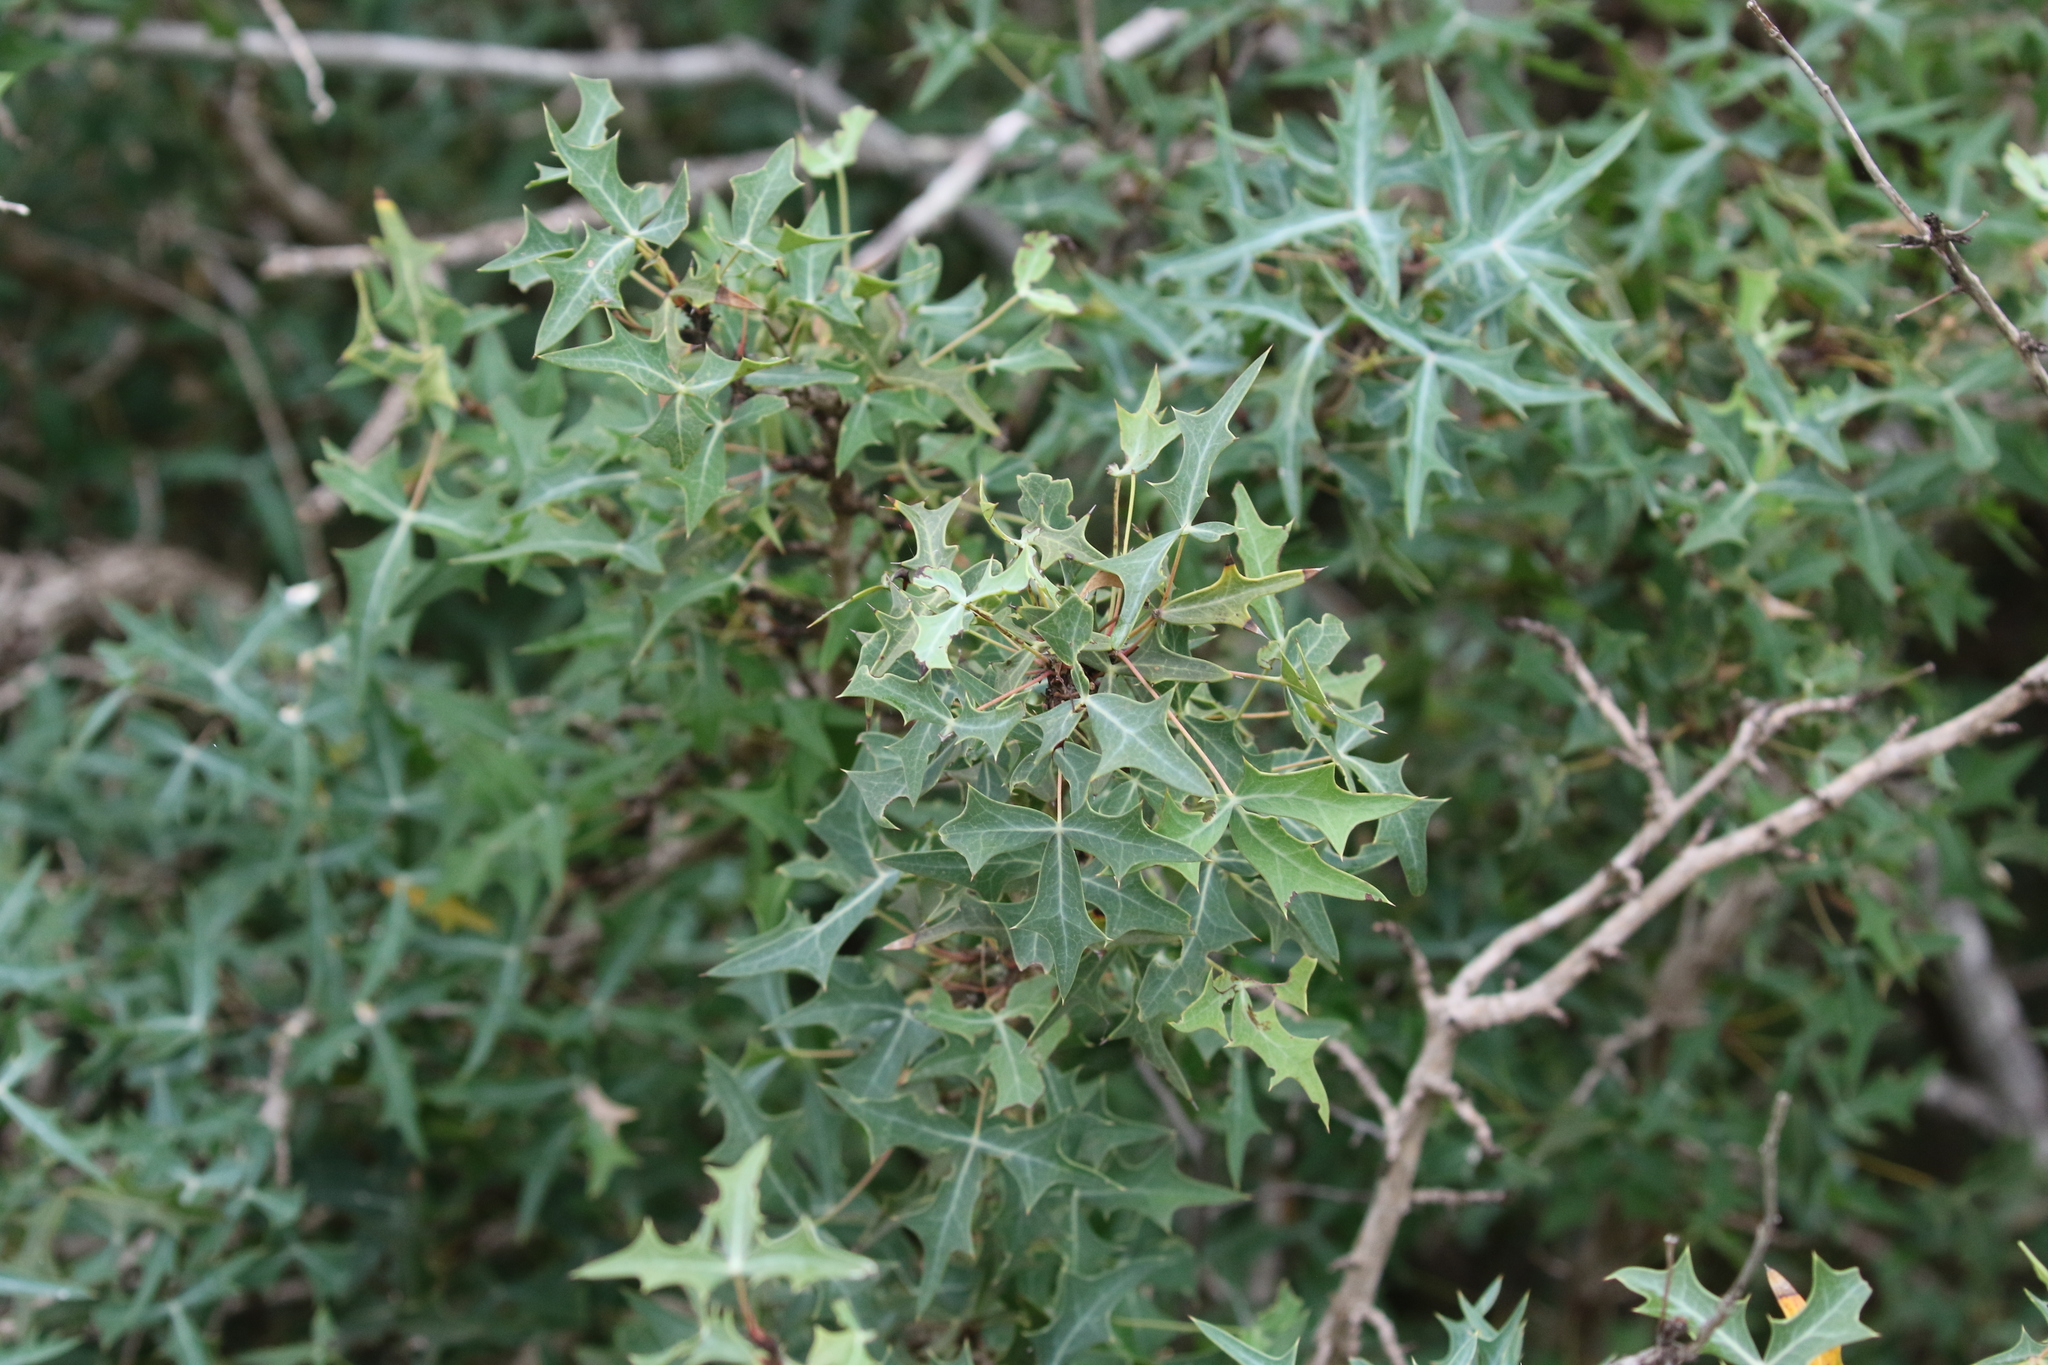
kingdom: Plantae
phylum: Tracheophyta
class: Magnoliopsida
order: Ranunculales
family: Berberidaceae
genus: Alloberberis
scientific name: Alloberberis trifoliolata
